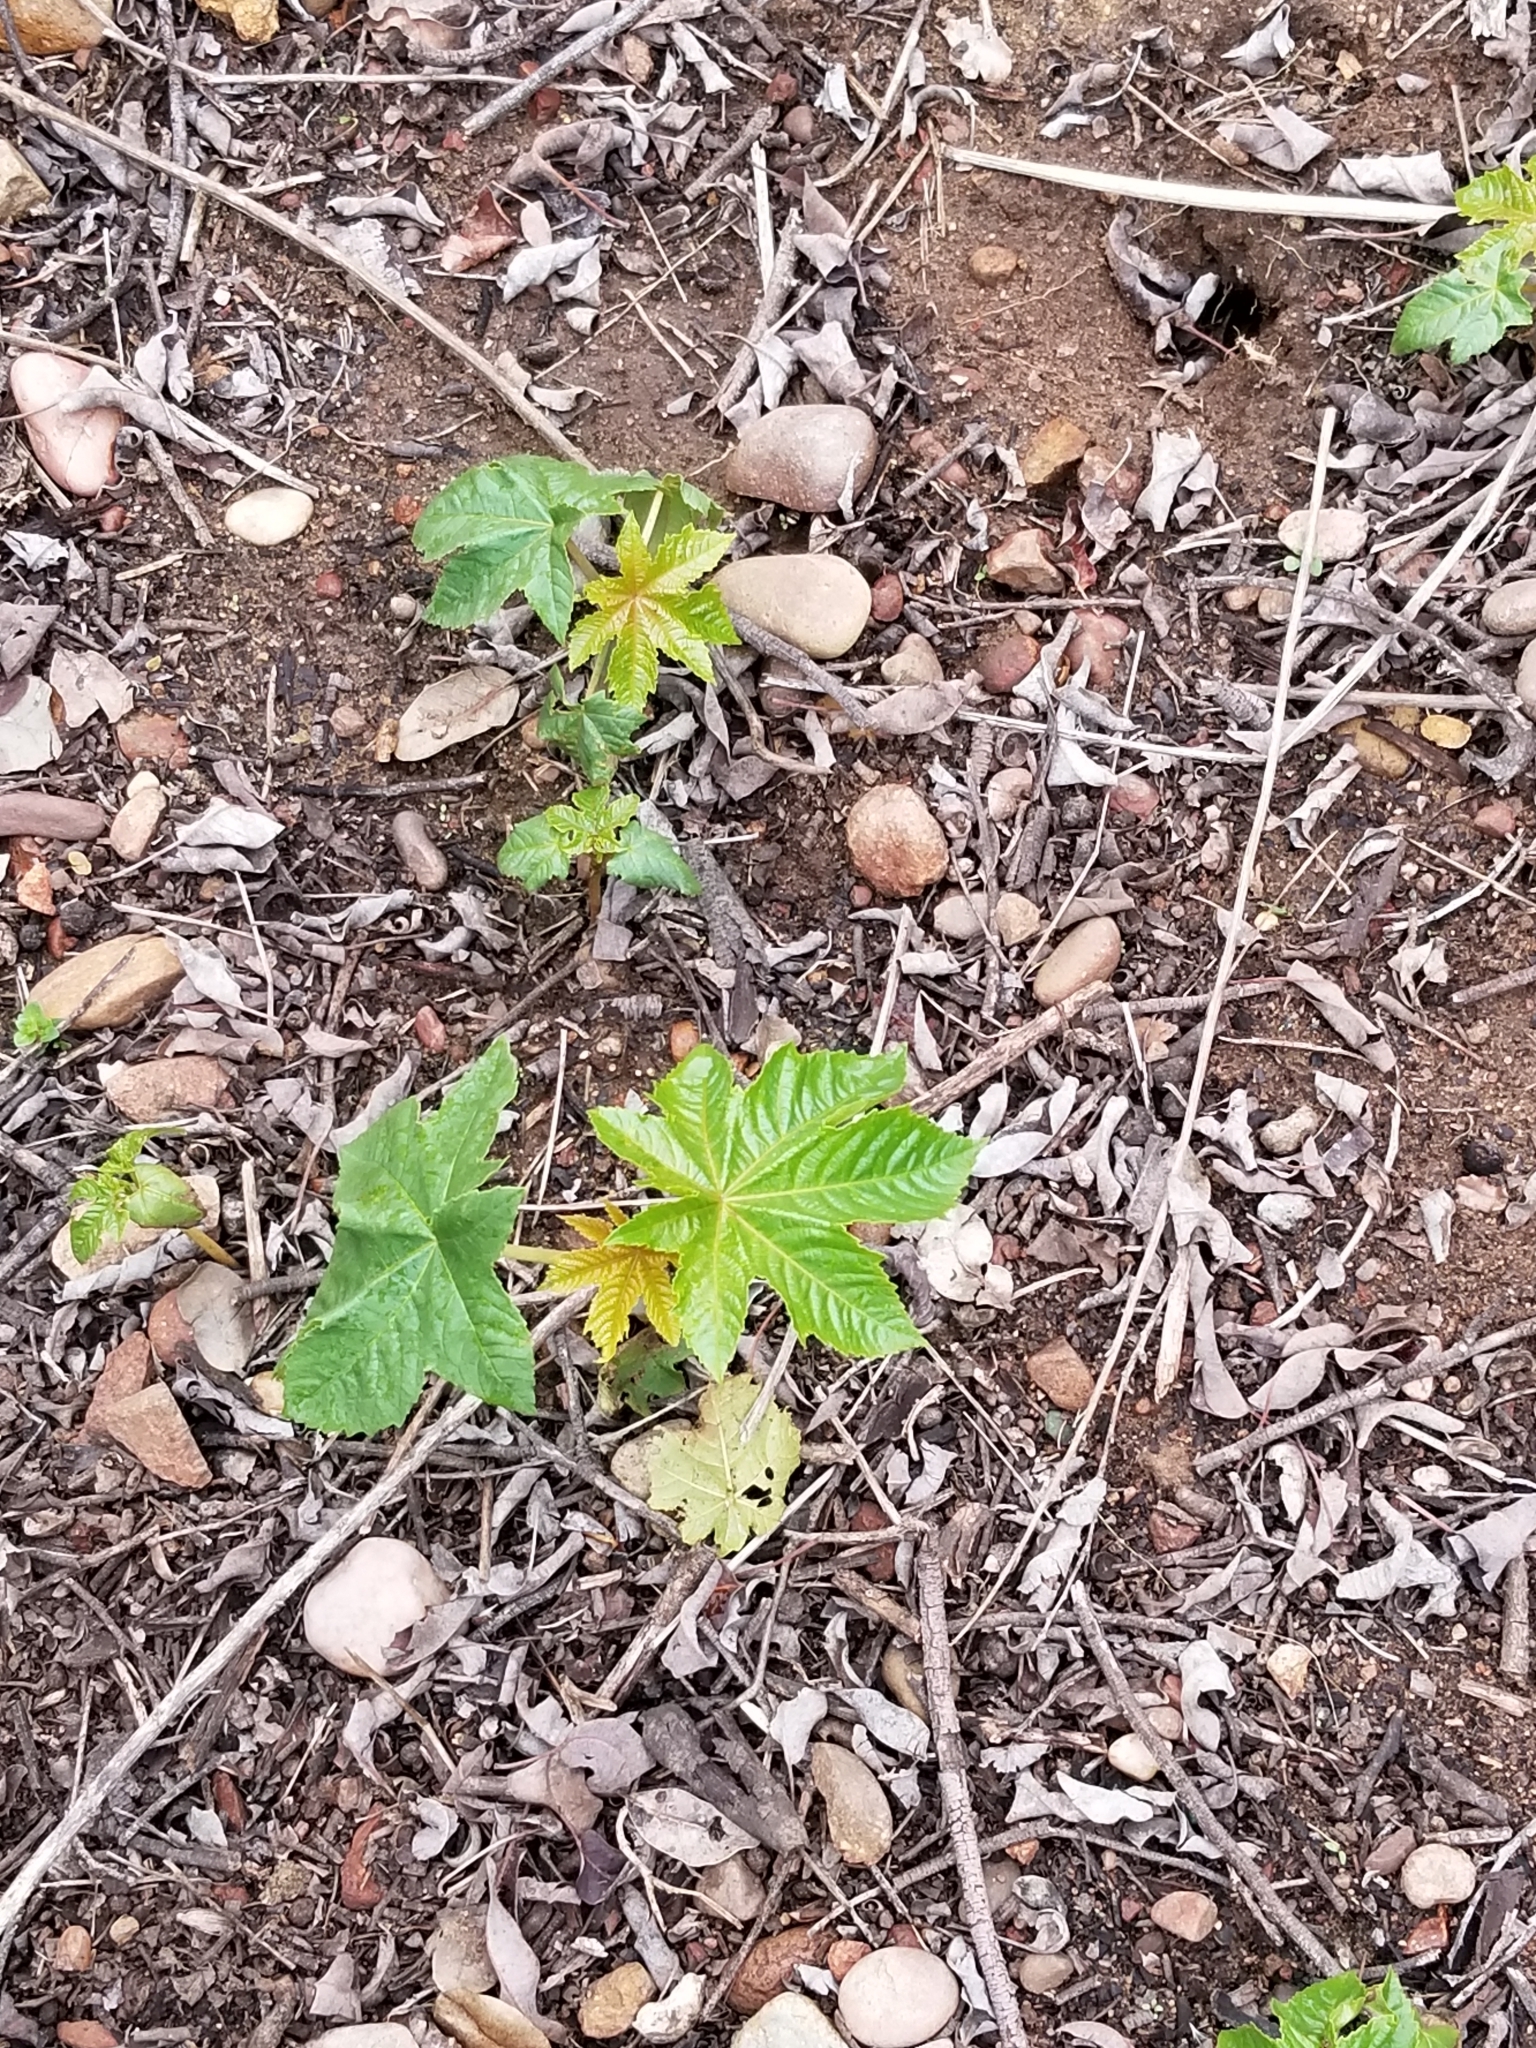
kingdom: Plantae
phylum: Tracheophyta
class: Magnoliopsida
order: Malpighiales
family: Euphorbiaceae
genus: Ricinus
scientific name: Ricinus communis
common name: Castor-oil-plant
